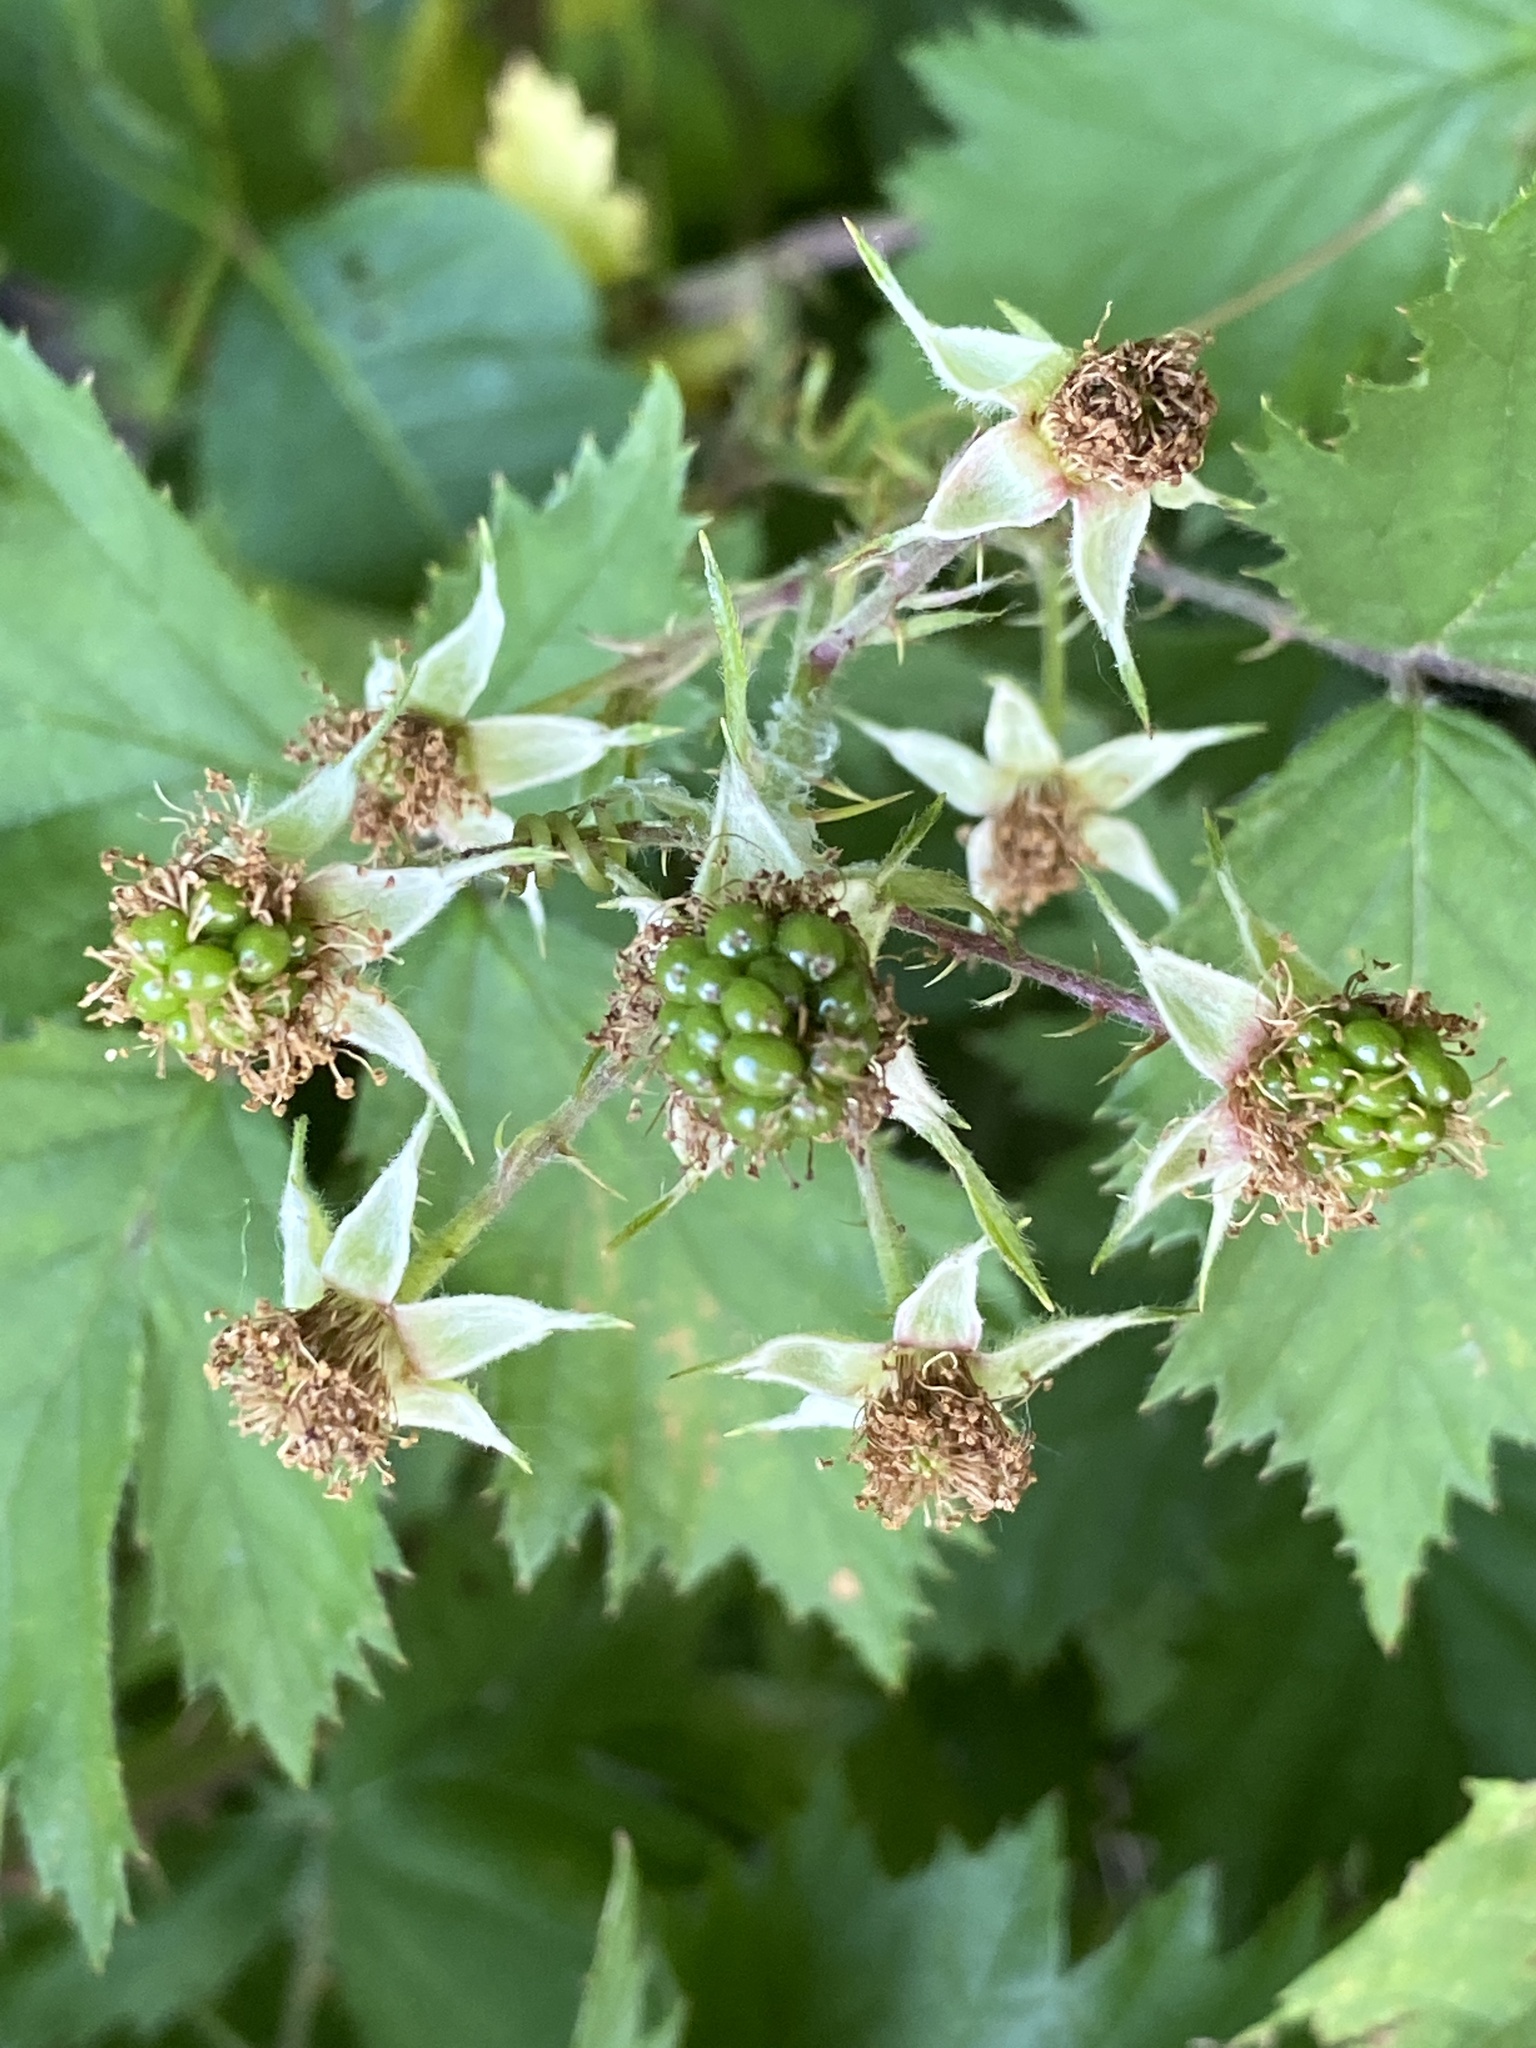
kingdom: Plantae
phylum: Tracheophyta
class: Magnoliopsida
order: Rosales
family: Rosaceae
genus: Rubus
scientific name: Rubus laciniatus
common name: Evergreen blackberry
